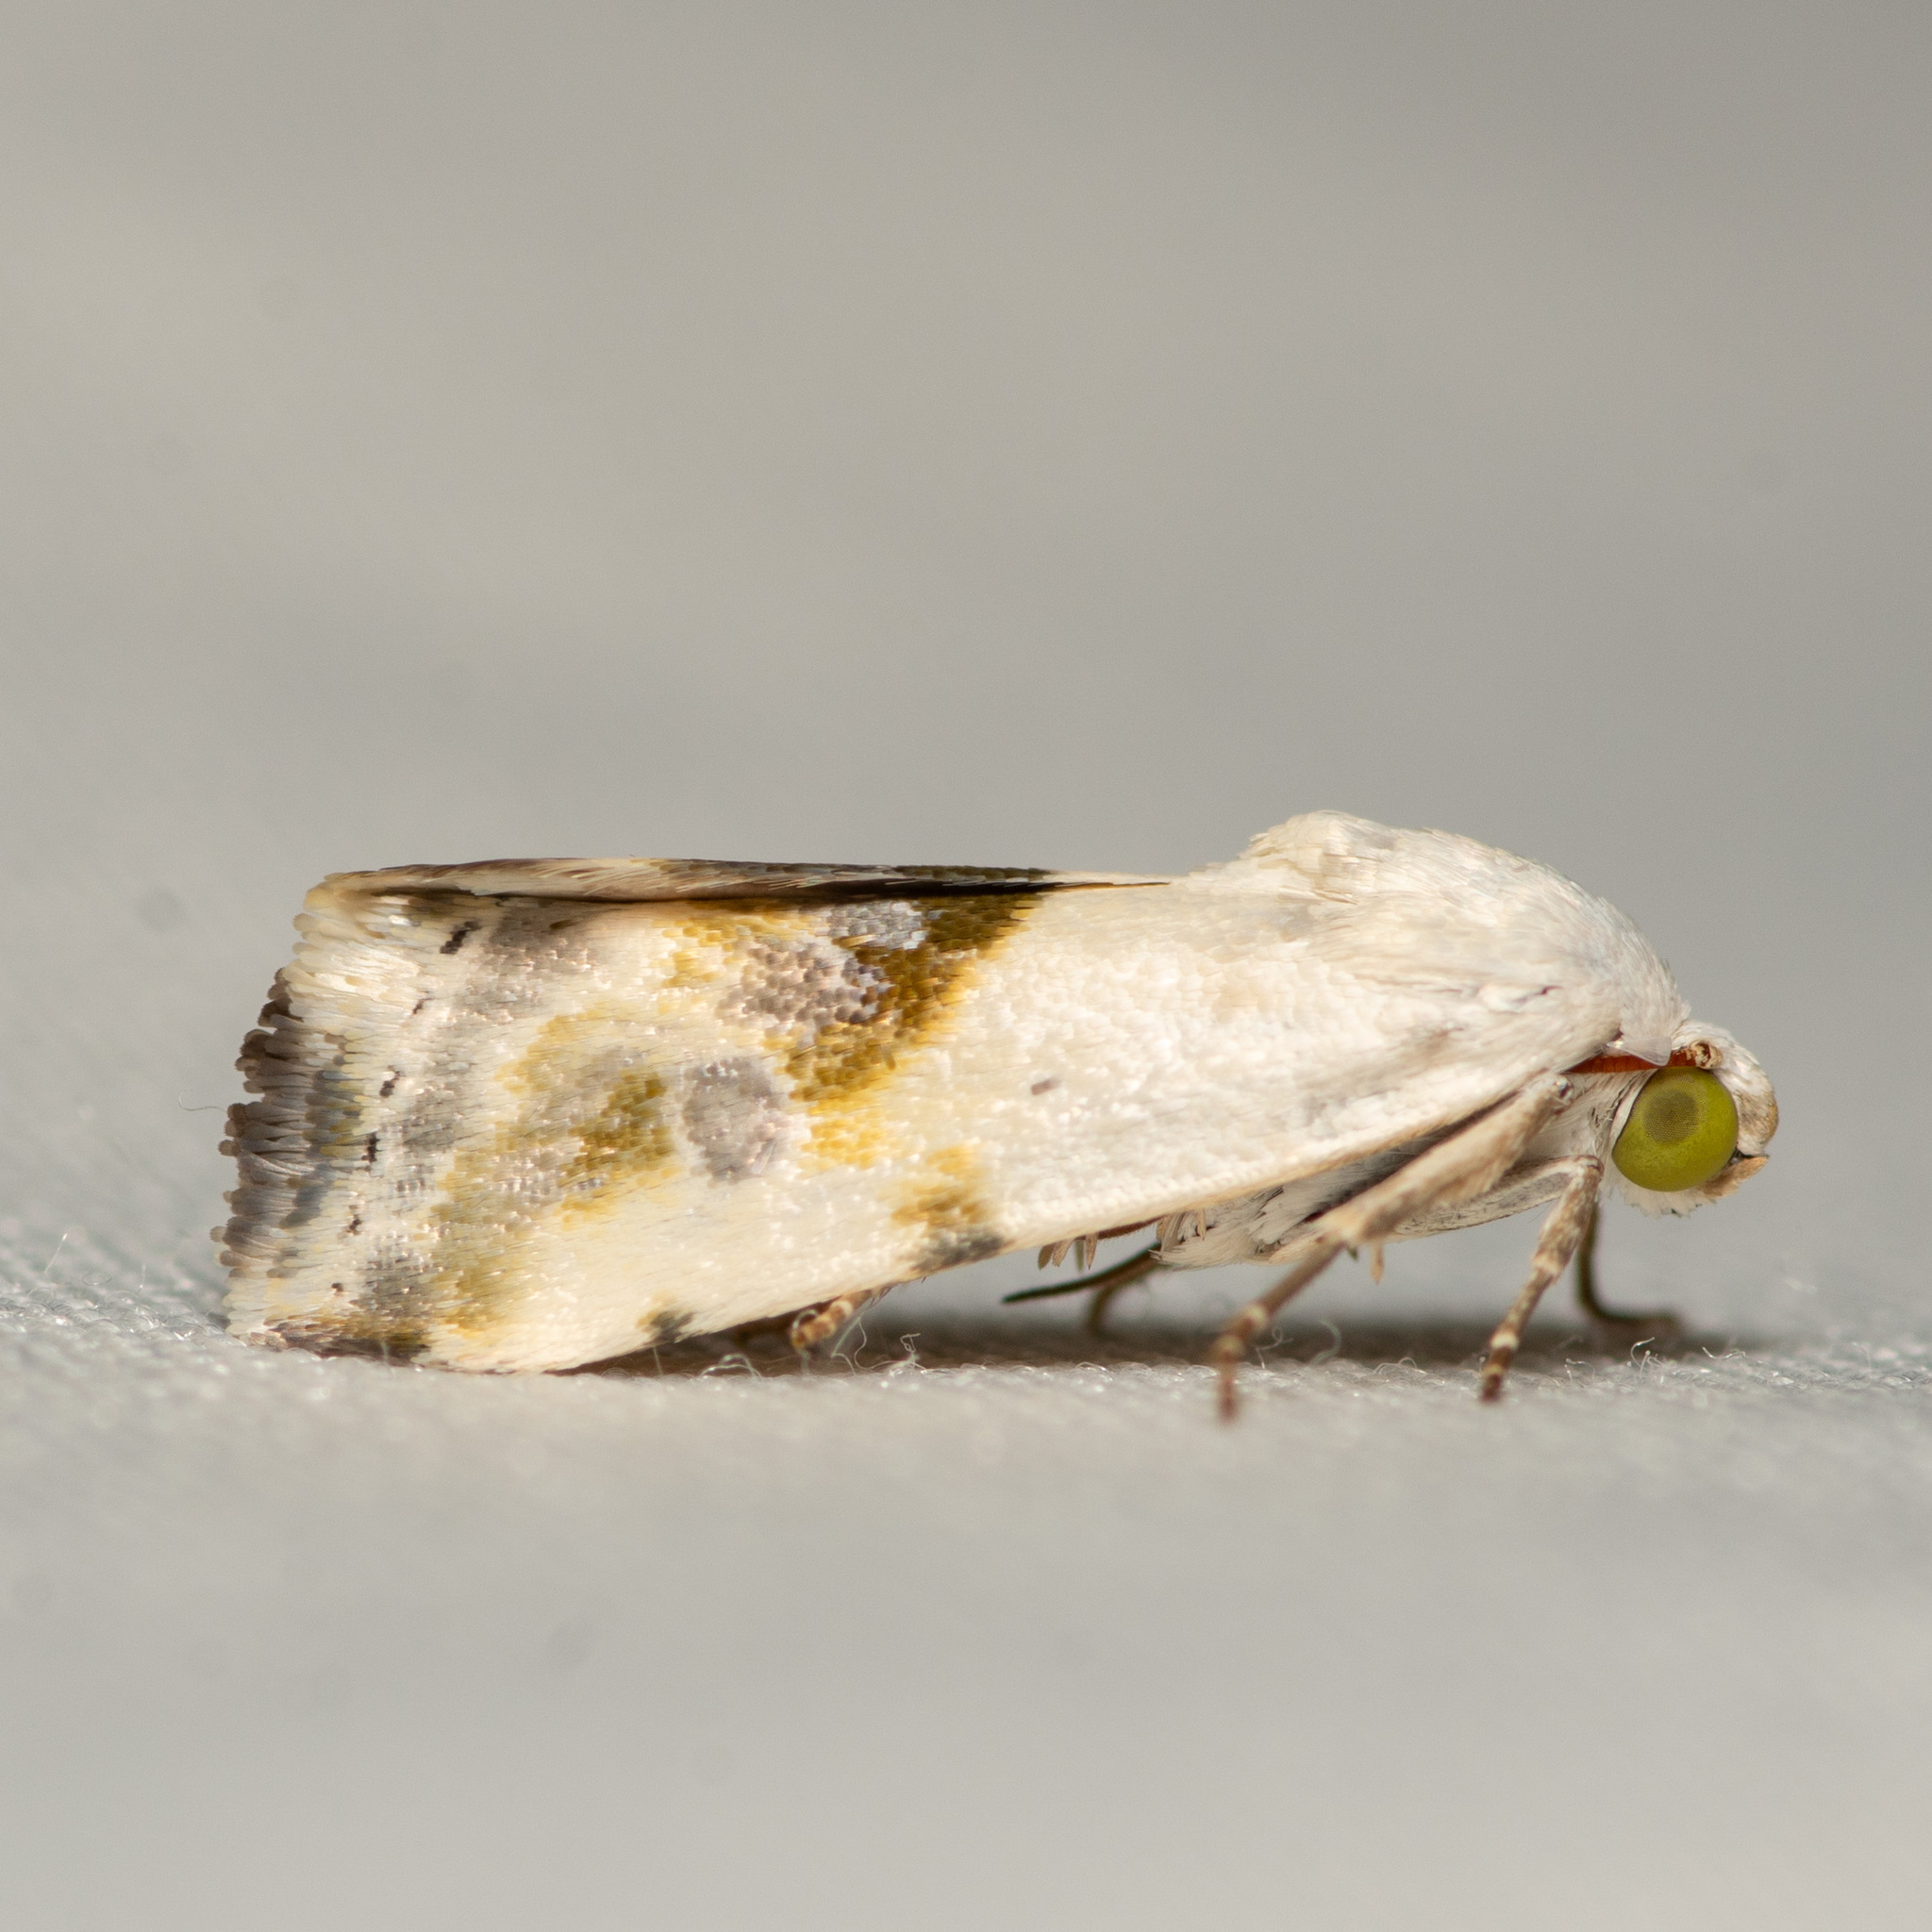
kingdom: Animalia
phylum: Arthropoda
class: Insecta
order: Lepidoptera
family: Noctuidae
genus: Acontia
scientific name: Acontia candefacta
